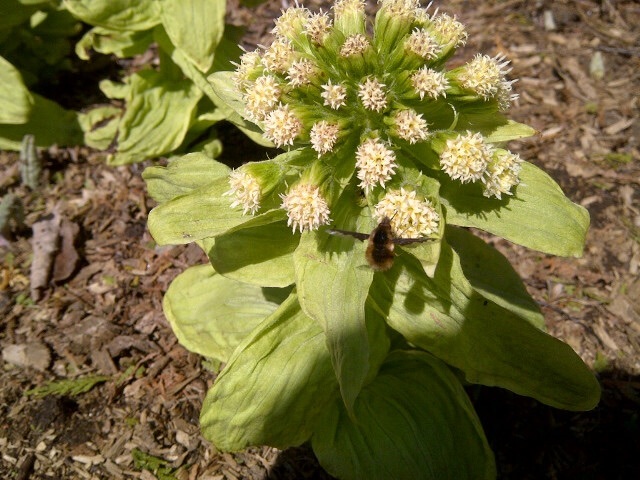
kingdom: Animalia
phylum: Arthropoda
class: Insecta
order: Diptera
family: Bombyliidae
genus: Bombylius
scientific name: Bombylius major
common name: Bee fly
